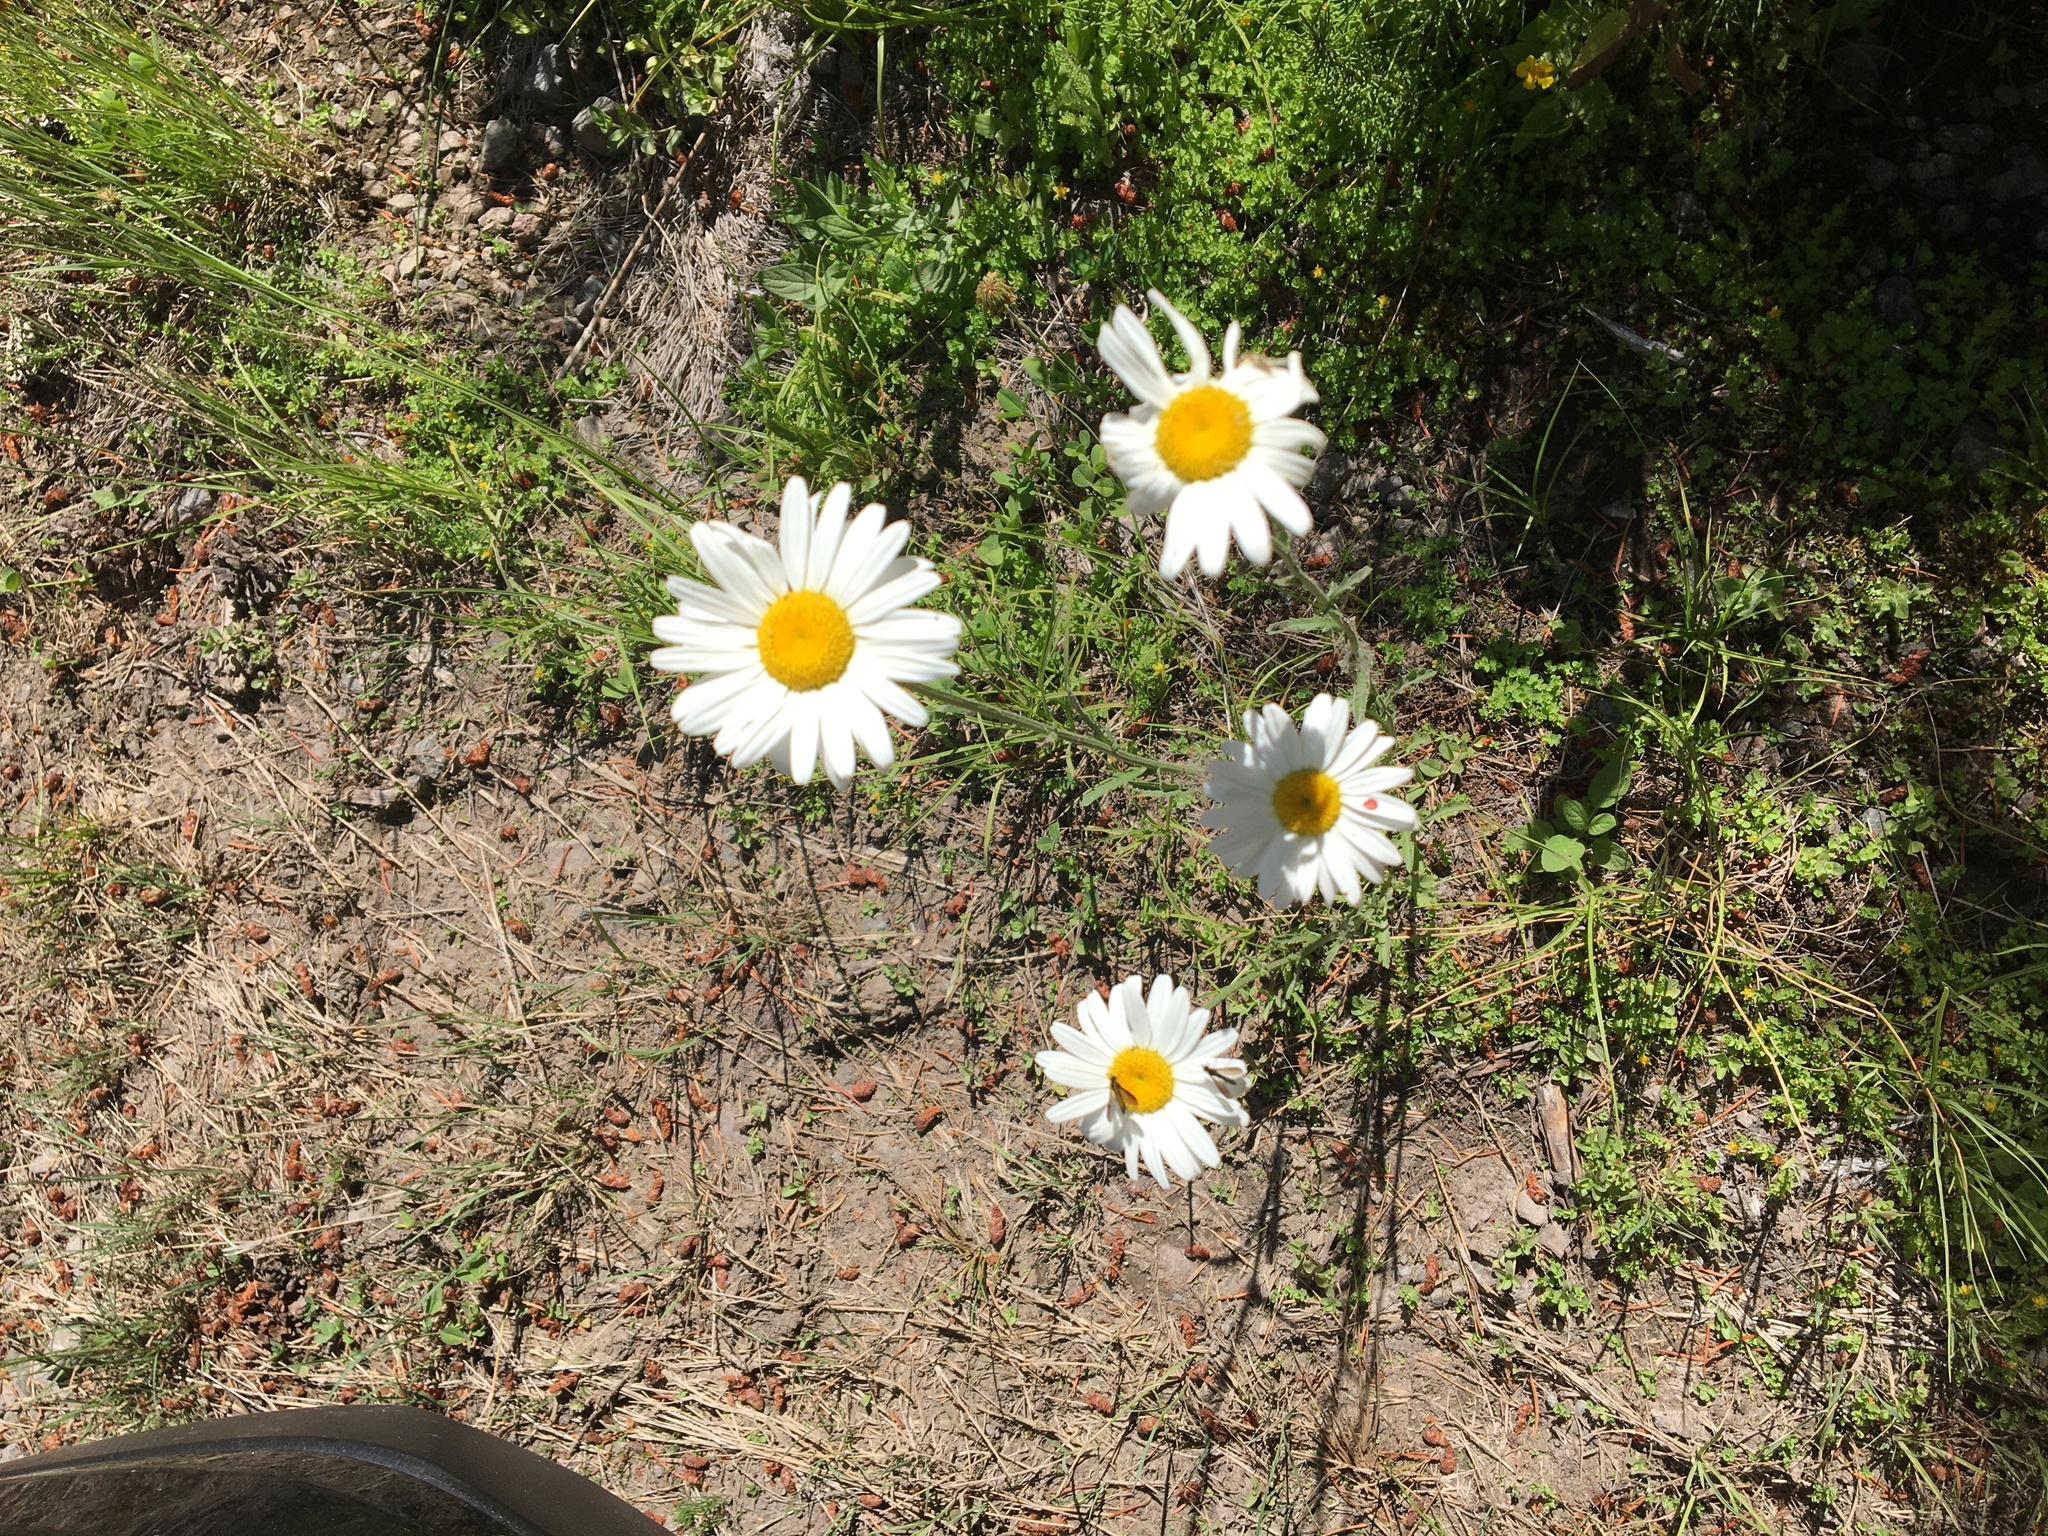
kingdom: Plantae
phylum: Tracheophyta
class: Magnoliopsida
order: Asterales
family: Asteraceae
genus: Leucanthemum
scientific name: Leucanthemum vulgare
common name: Oxeye daisy
